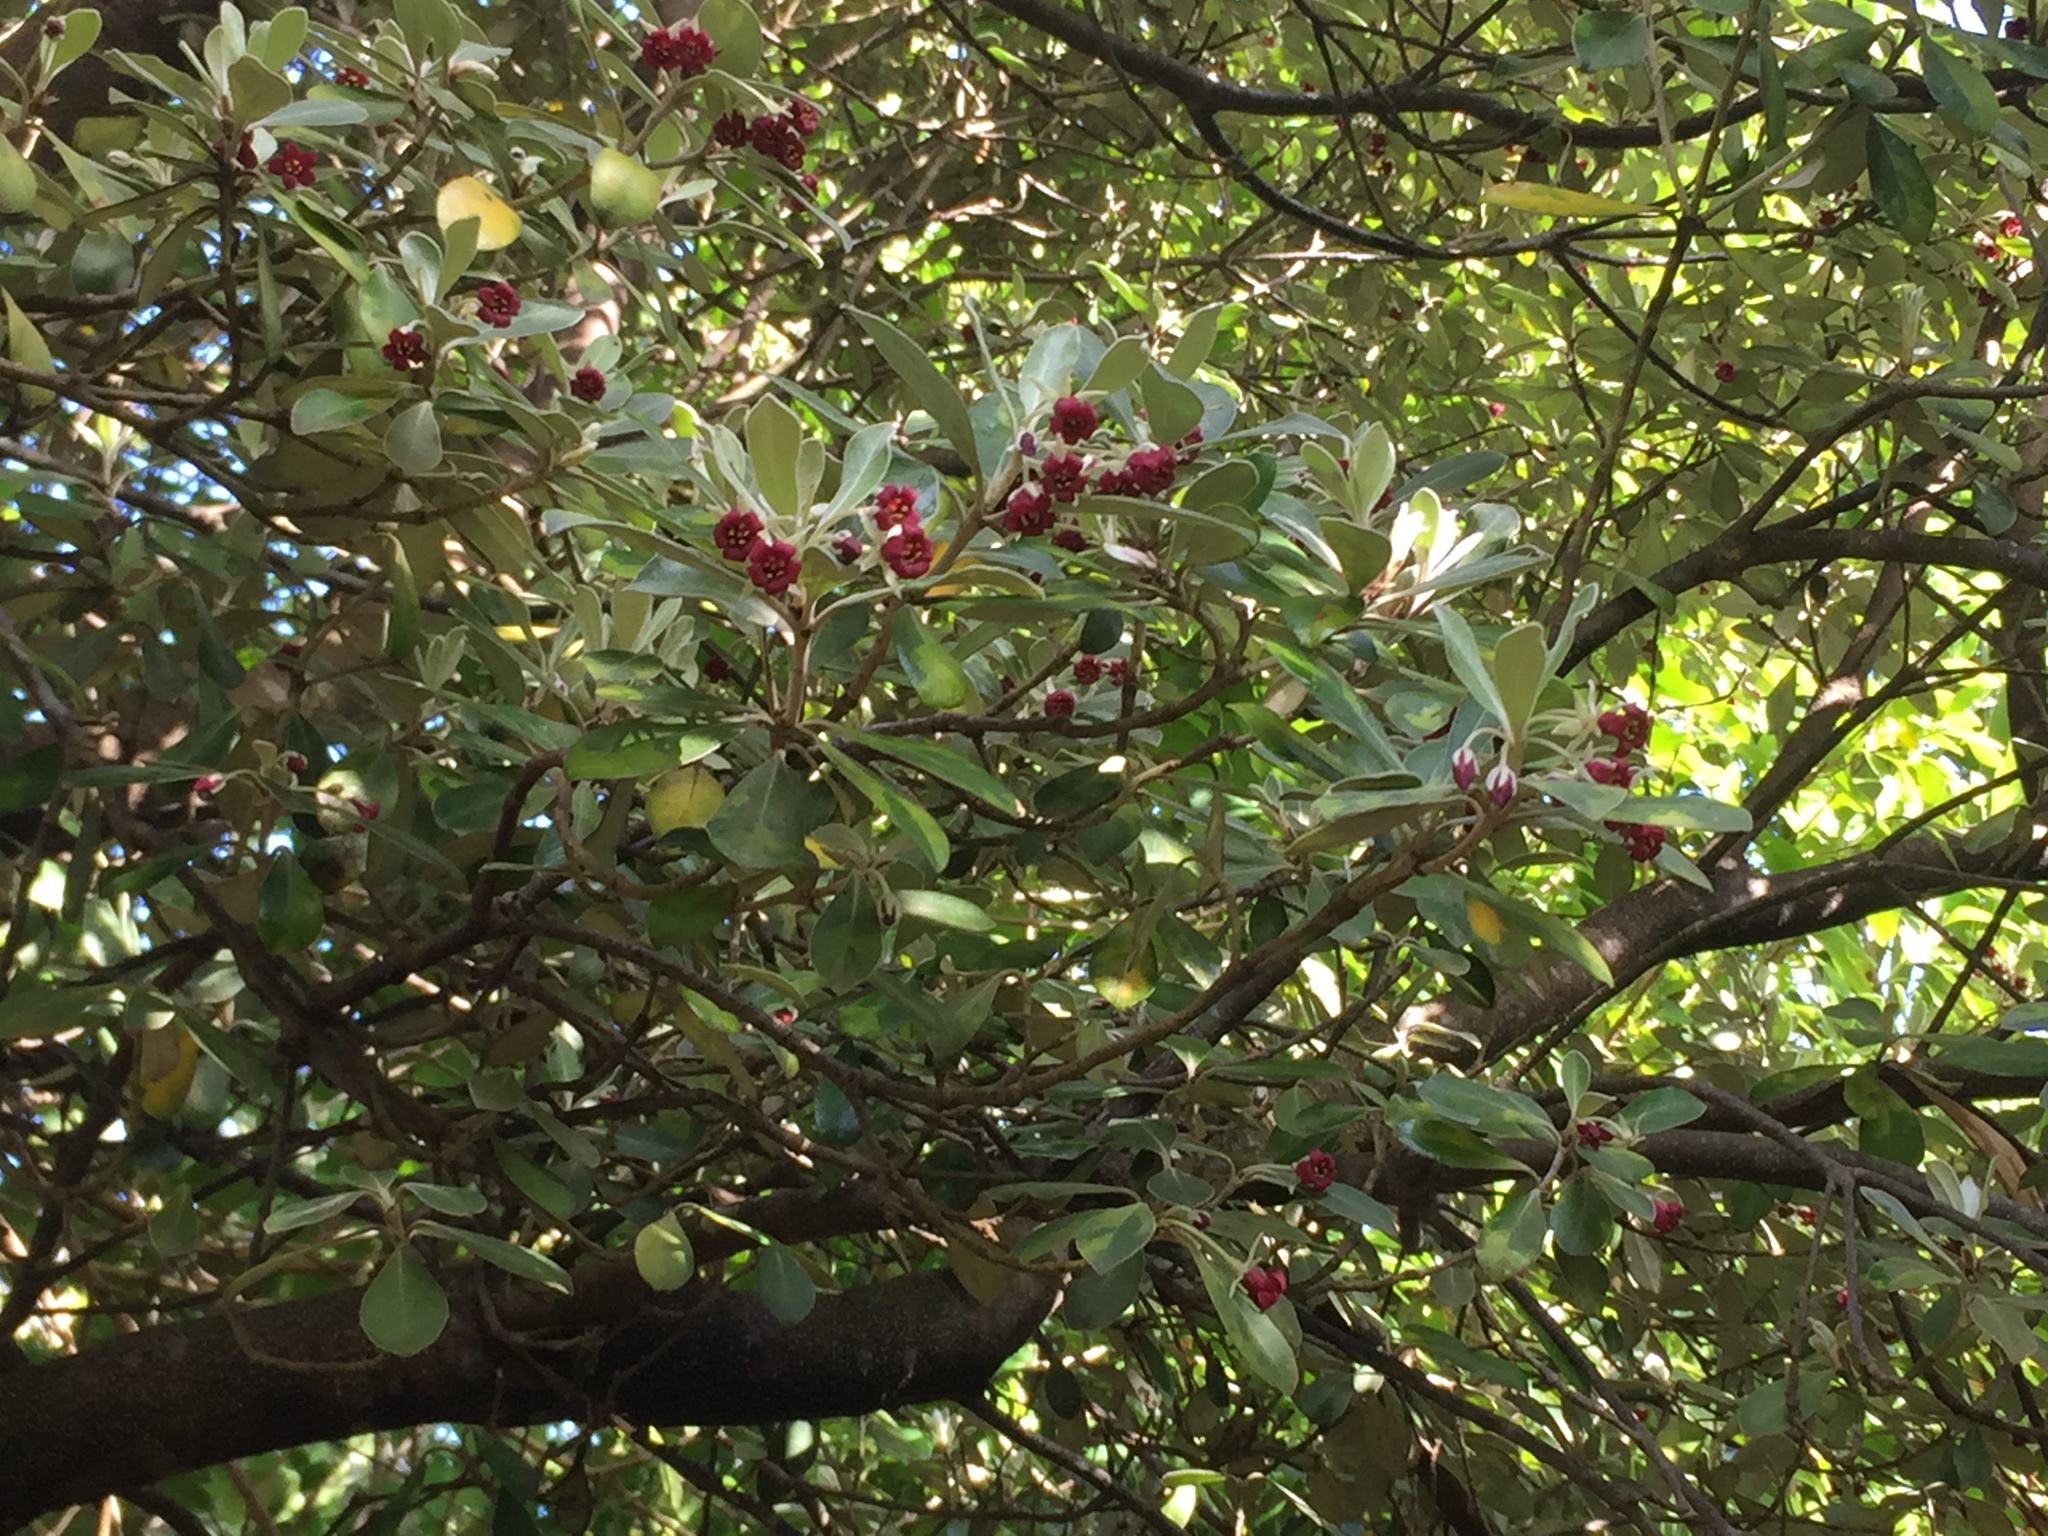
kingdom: Plantae
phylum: Tracheophyta
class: Magnoliopsida
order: Apiales
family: Pittosporaceae
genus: Pittosporum
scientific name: Pittosporum crassifolium
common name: Karo
